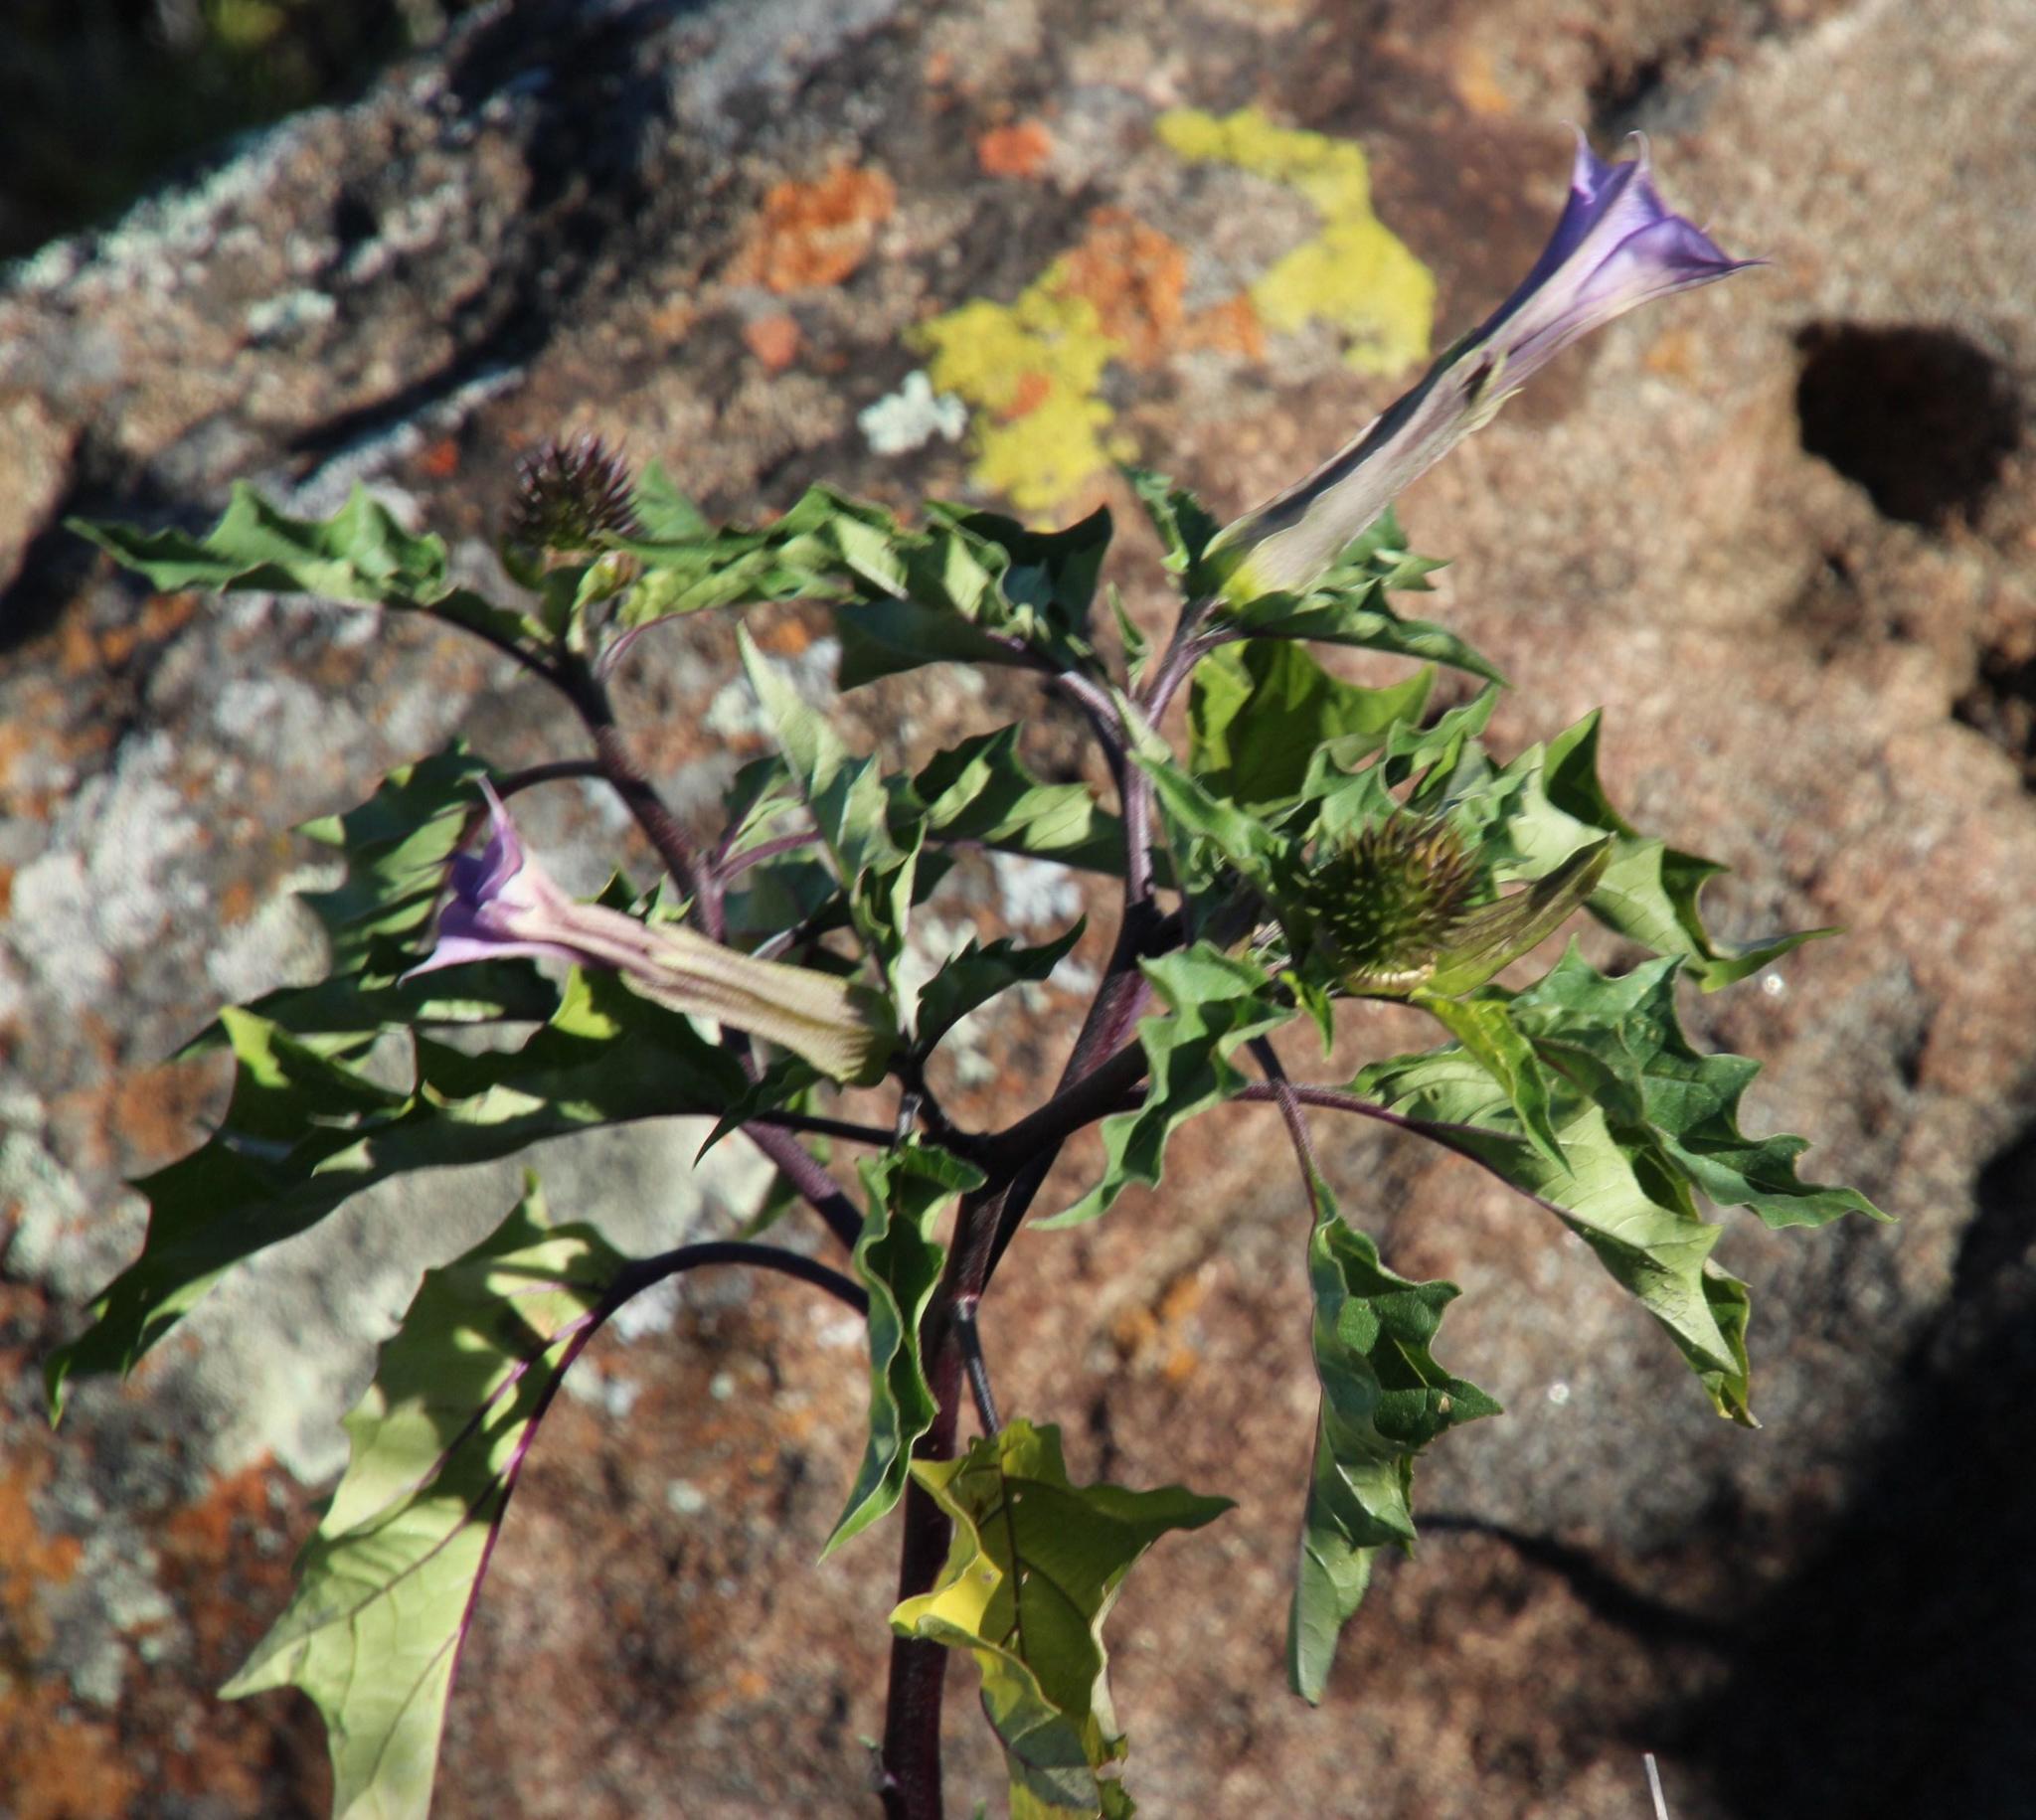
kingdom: Plantae
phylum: Tracheophyta
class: Magnoliopsida
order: Solanales
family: Solanaceae
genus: Datura
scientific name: Datura stramonium
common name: Thorn-apple
